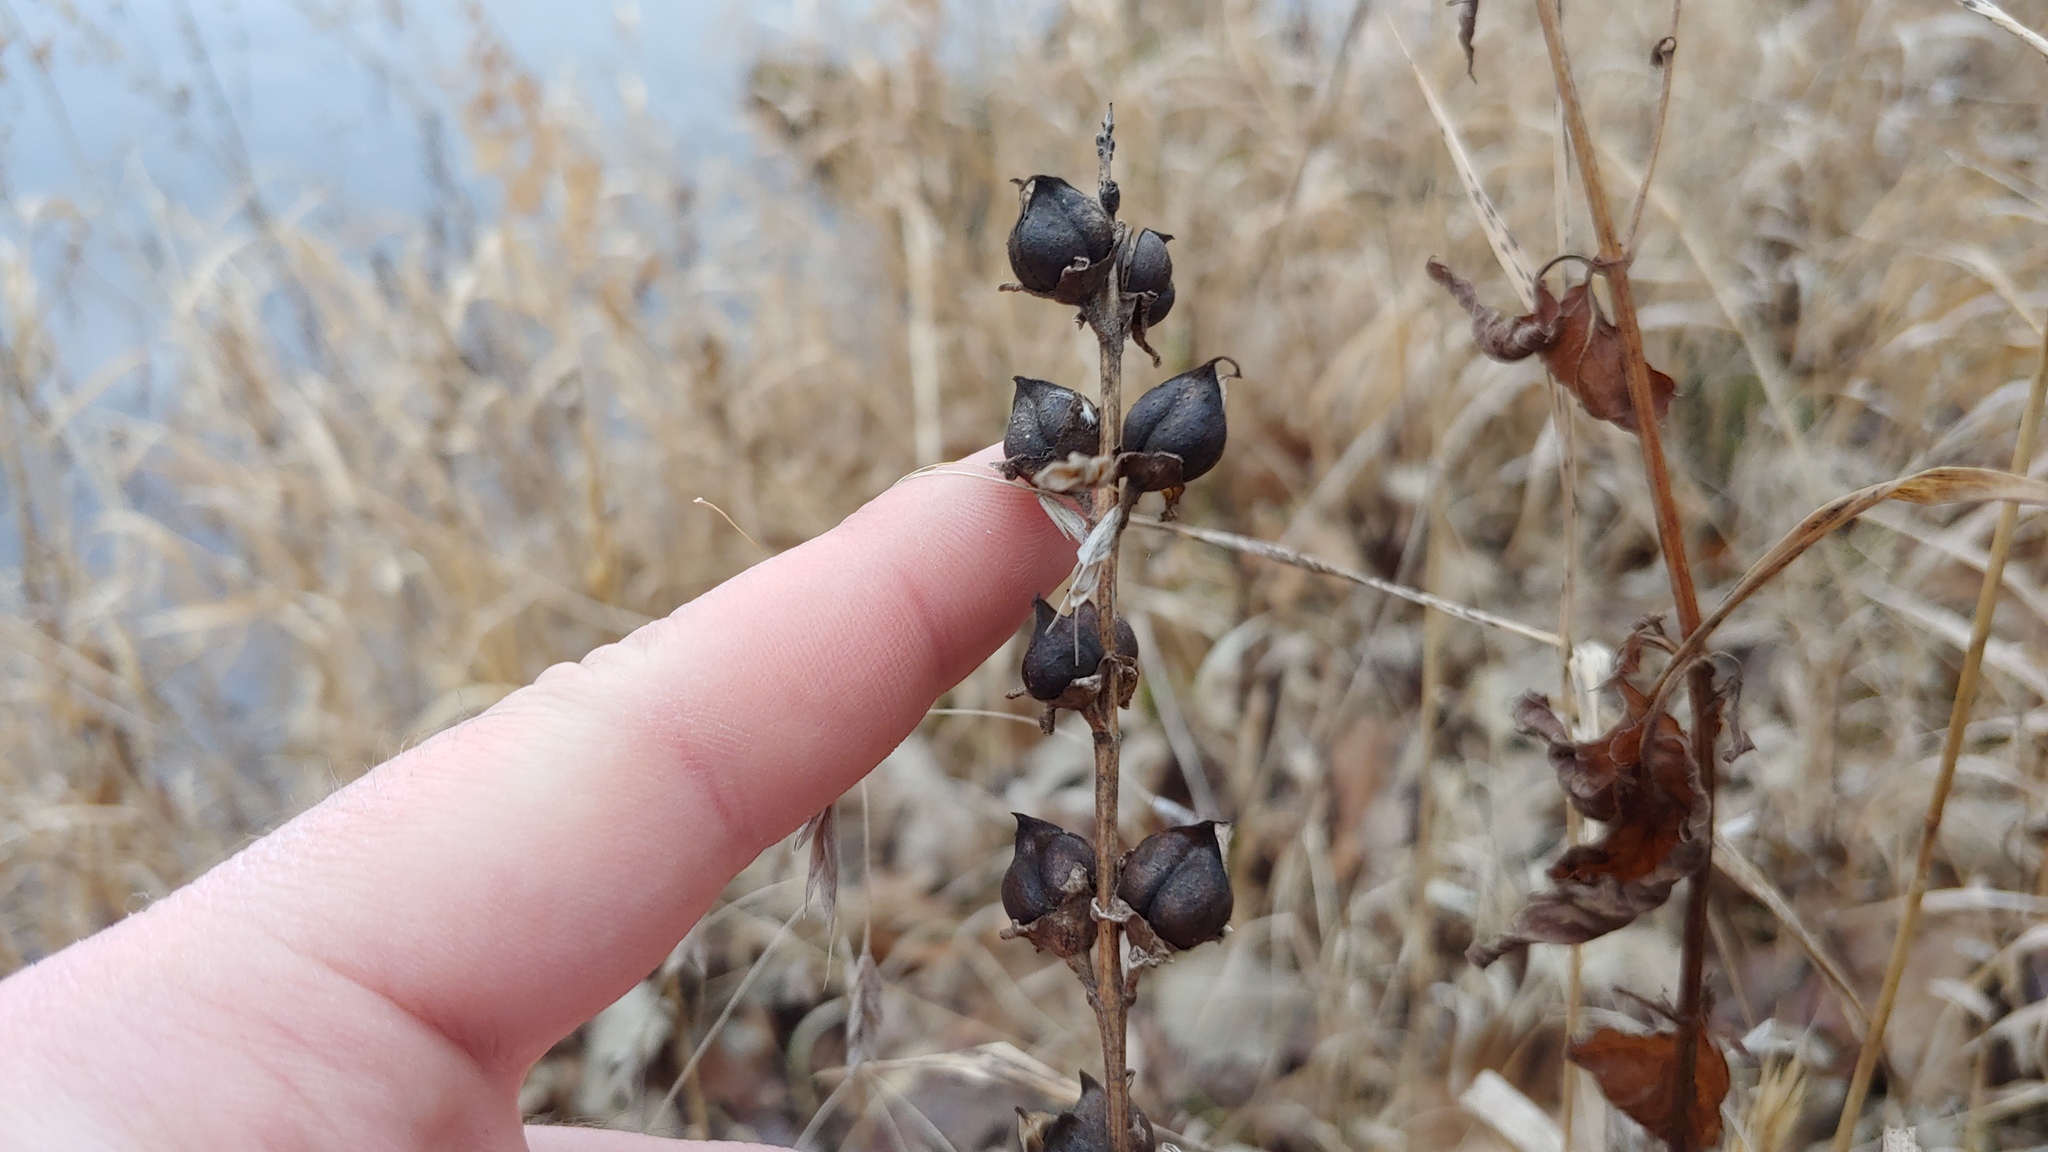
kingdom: Plantae
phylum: Tracheophyta
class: Magnoliopsida
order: Lamiales
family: Orobanchaceae
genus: Dasistoma
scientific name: Dasistoma macrophyllum
